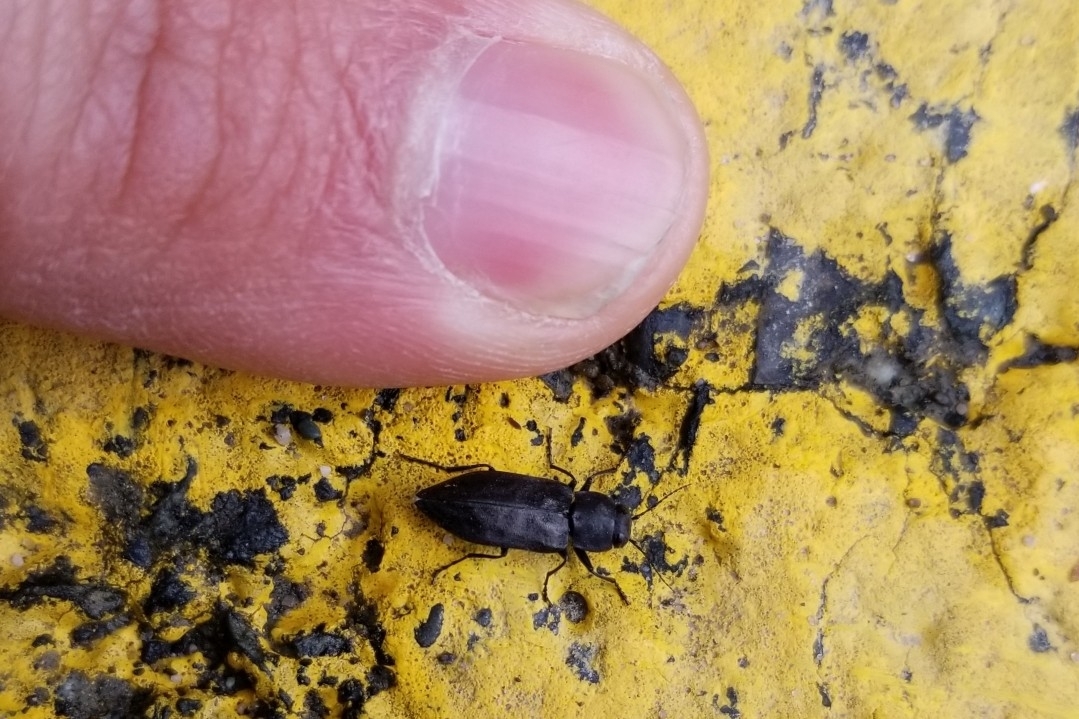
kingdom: Animalia
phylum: Arthropoda
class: Insecta
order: Coleoptera
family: Buprestidae
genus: Melanophila
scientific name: Melanophila acuminata
